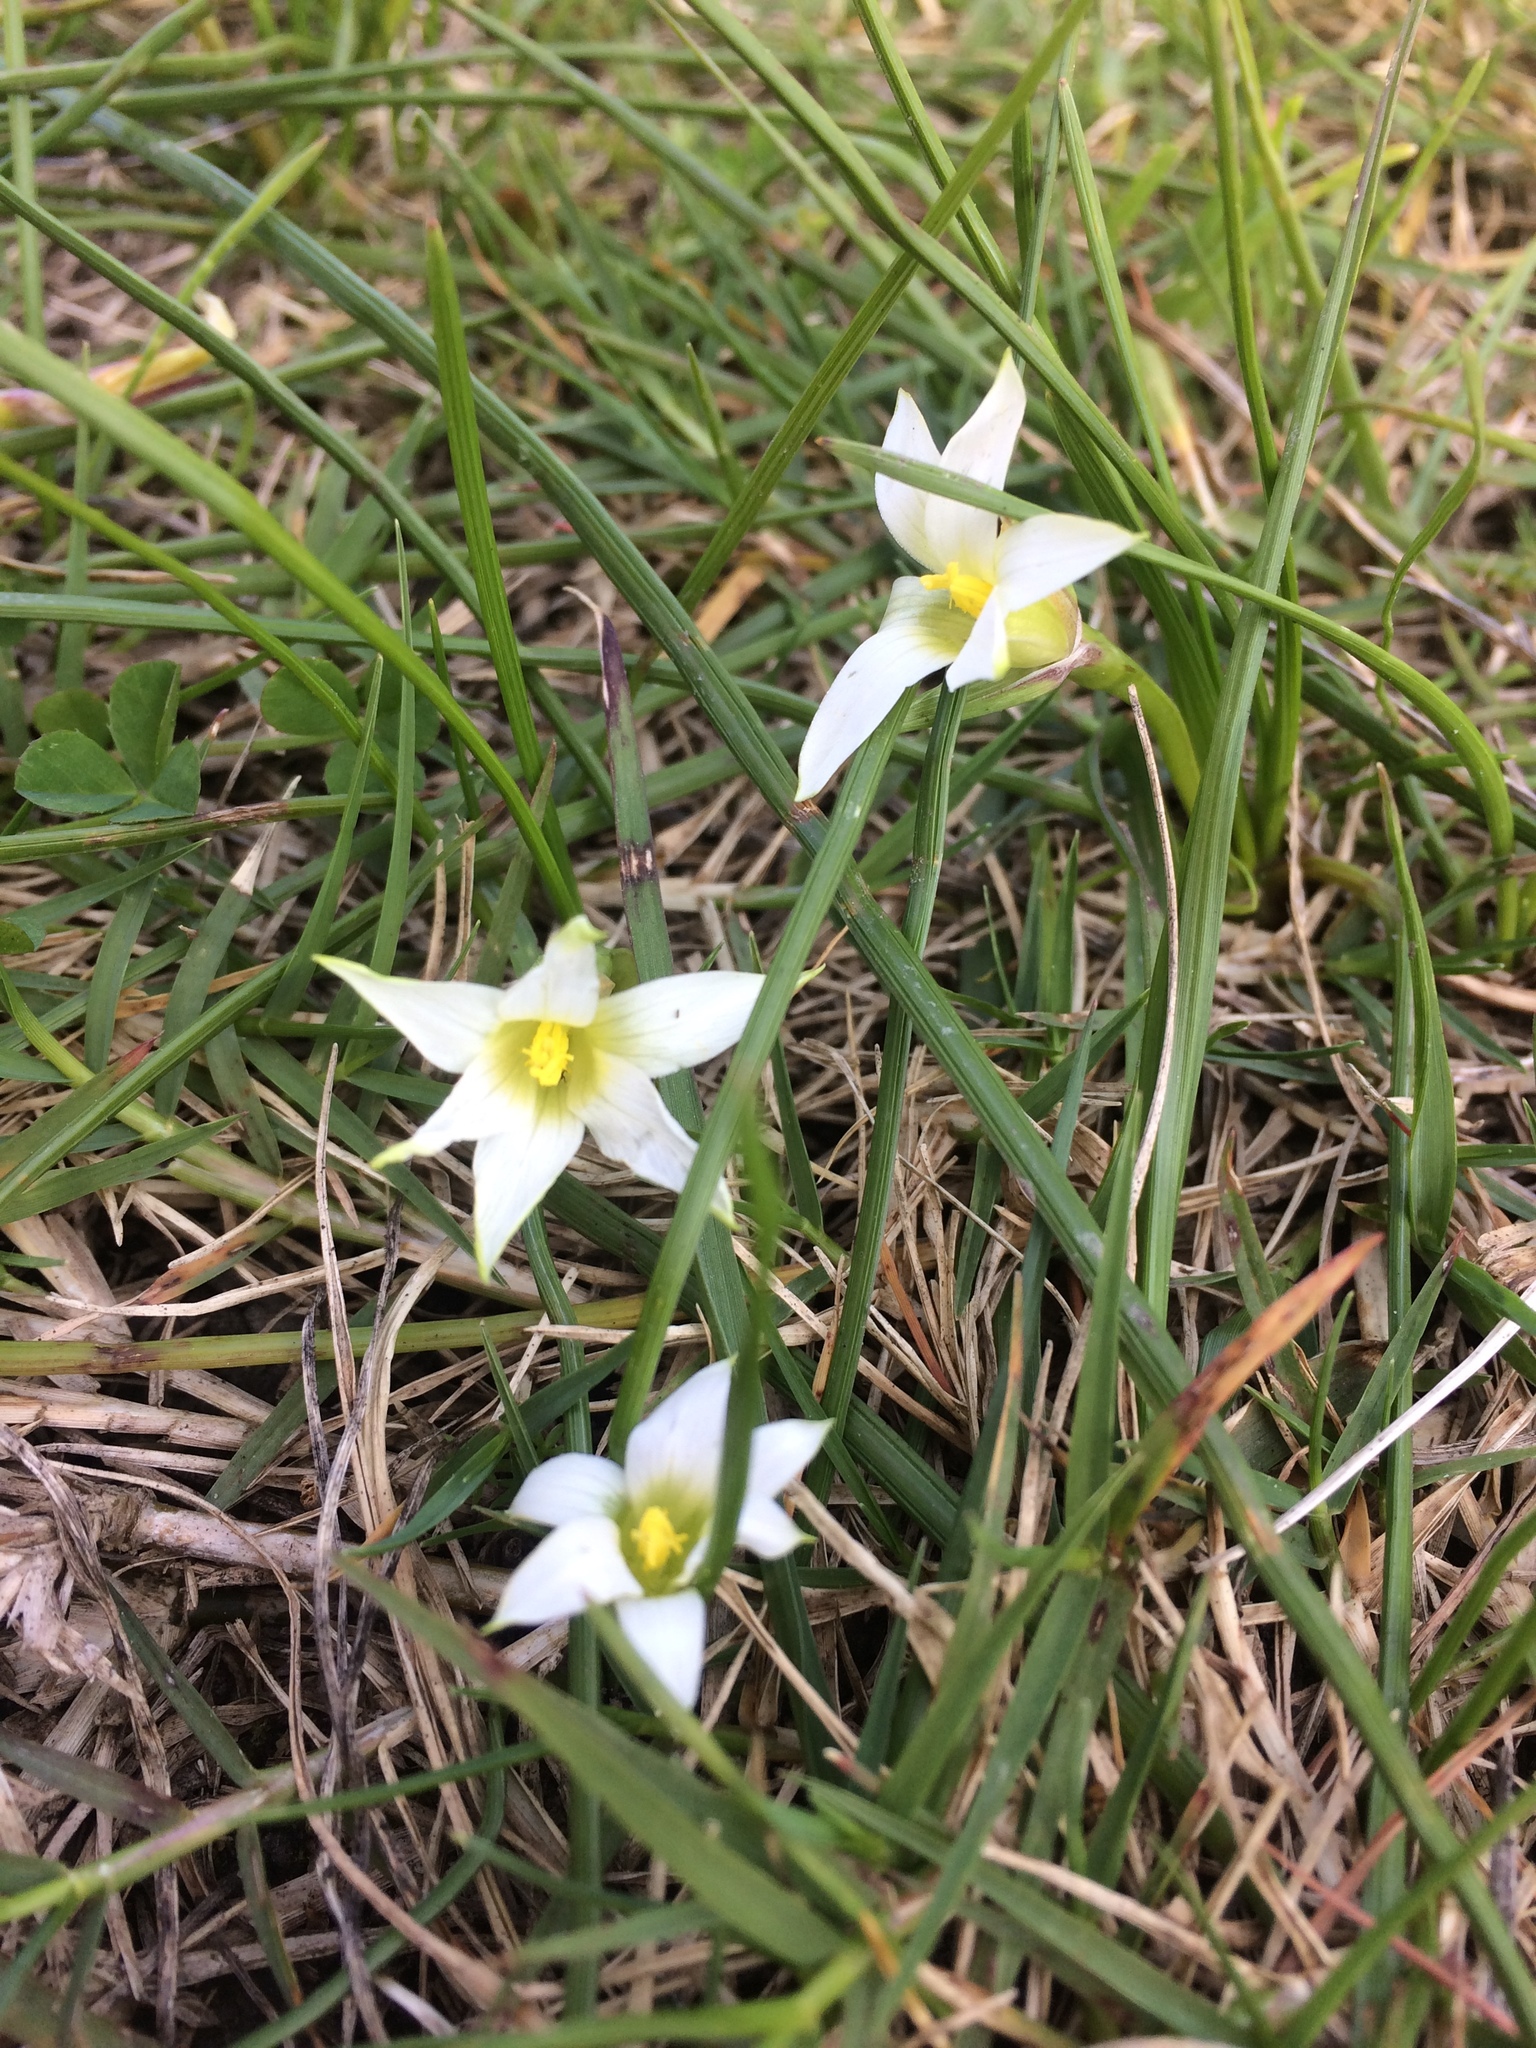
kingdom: Plantae
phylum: Tracheophyta
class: Liliopsida
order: Asparagales
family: Iridaceae
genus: Romulea
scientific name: Romulea rosea
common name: Oniongrass
